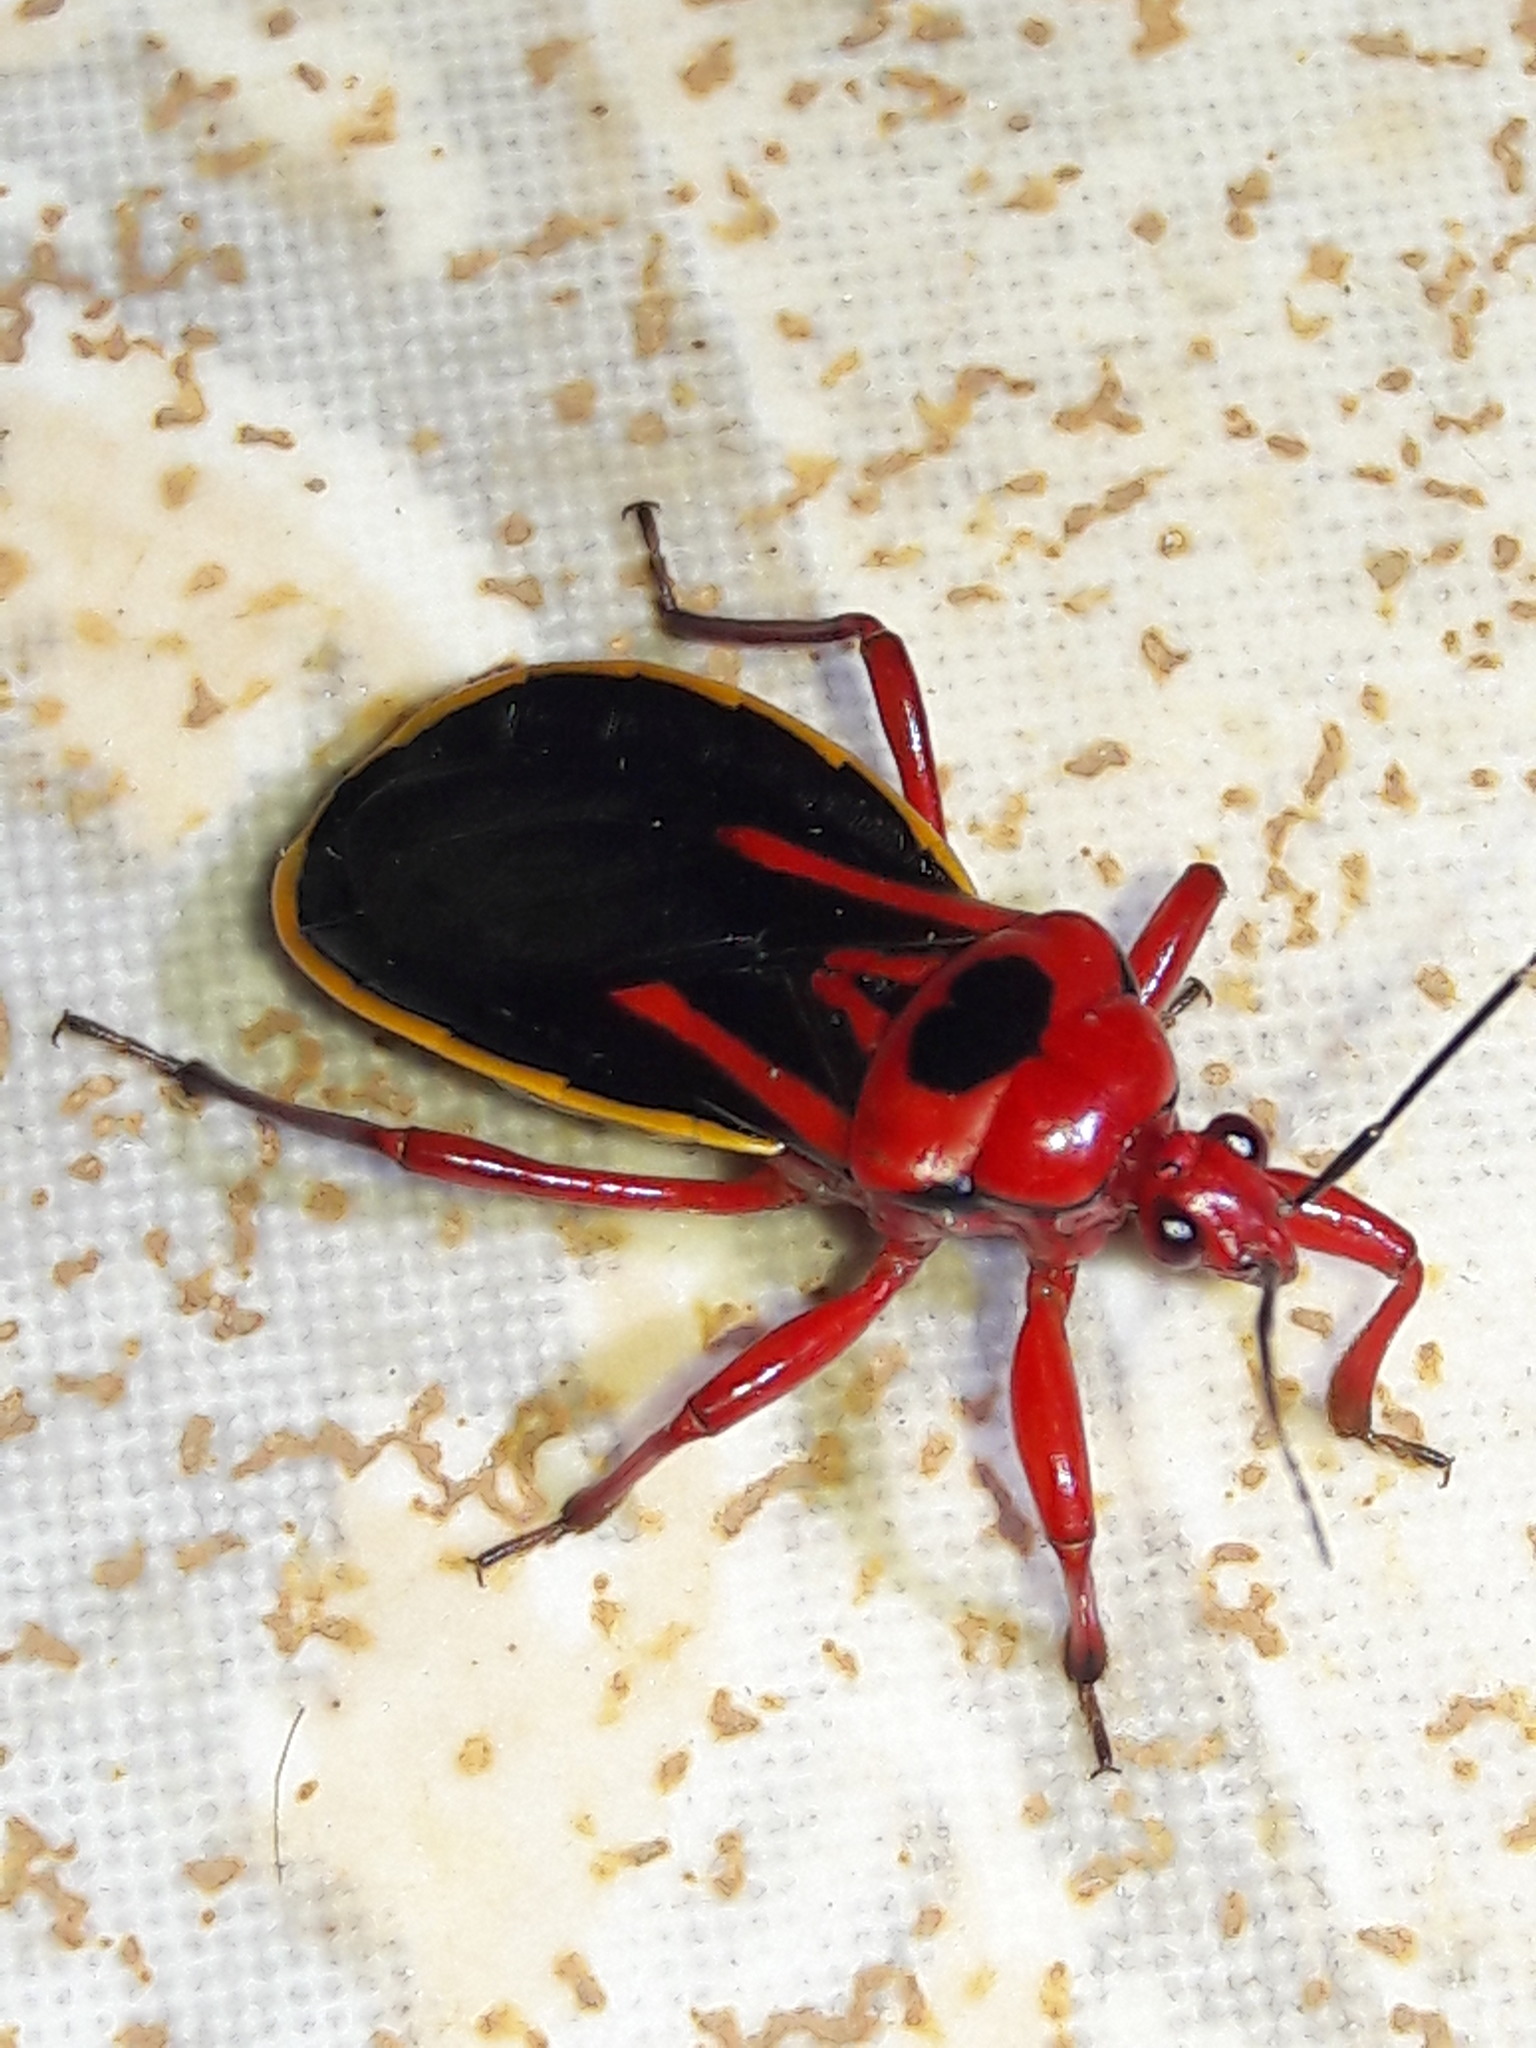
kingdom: Animalia
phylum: Arthropoda
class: Insecta
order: Hemiptera
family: Reduviidae
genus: Brontostoma
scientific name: Brontostoma discus
